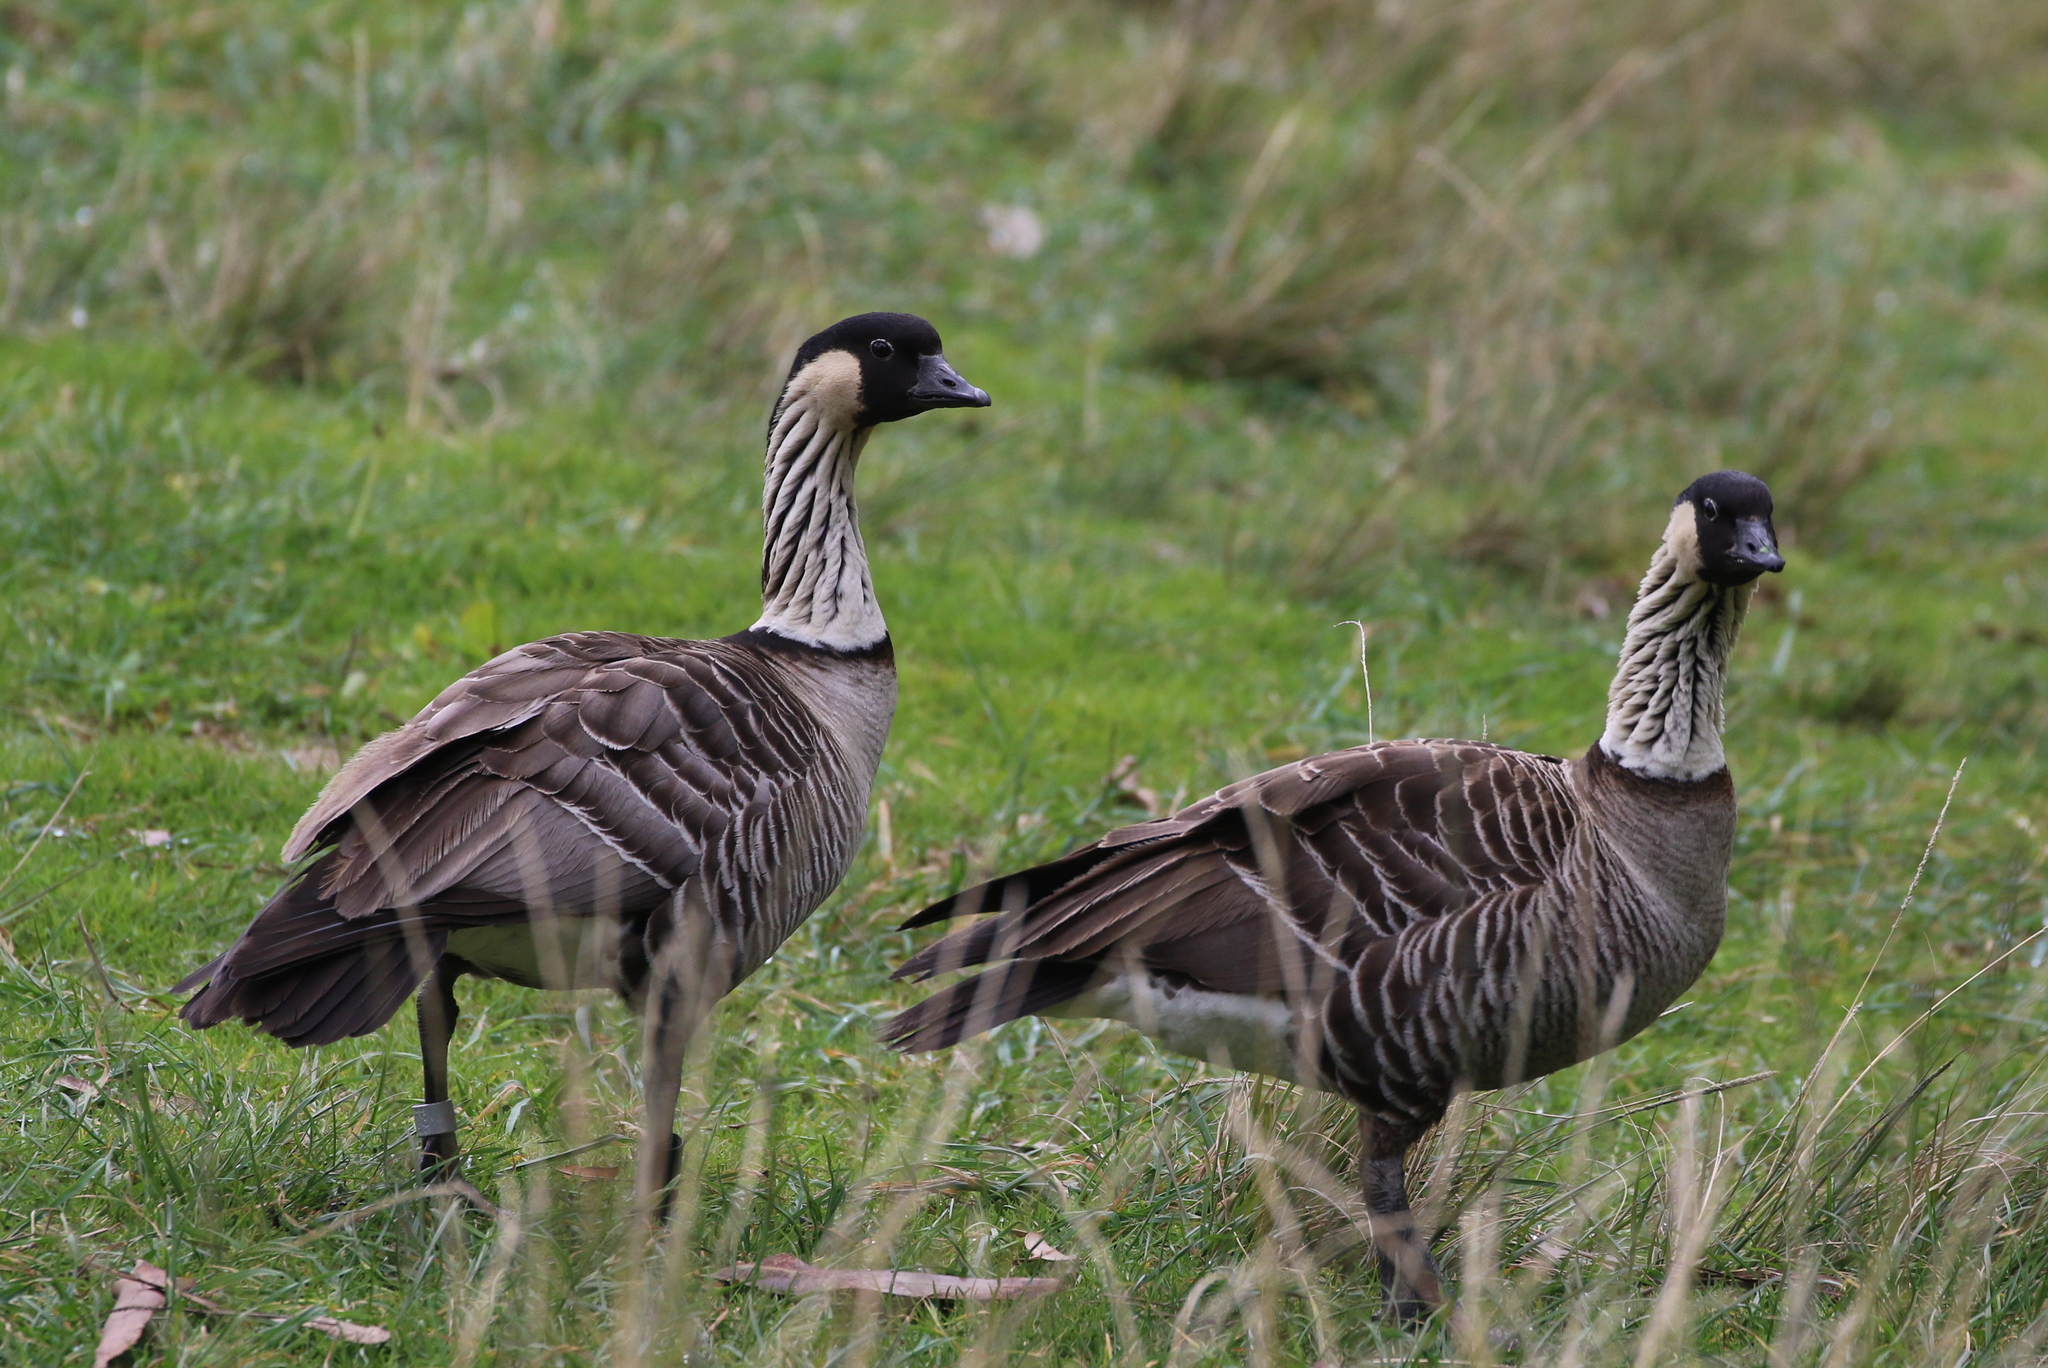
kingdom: Animalia
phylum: Chordata
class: Aves
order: Anseriformes
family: Anatidae
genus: Branta
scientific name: Branta sandvicensis
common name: Nene
